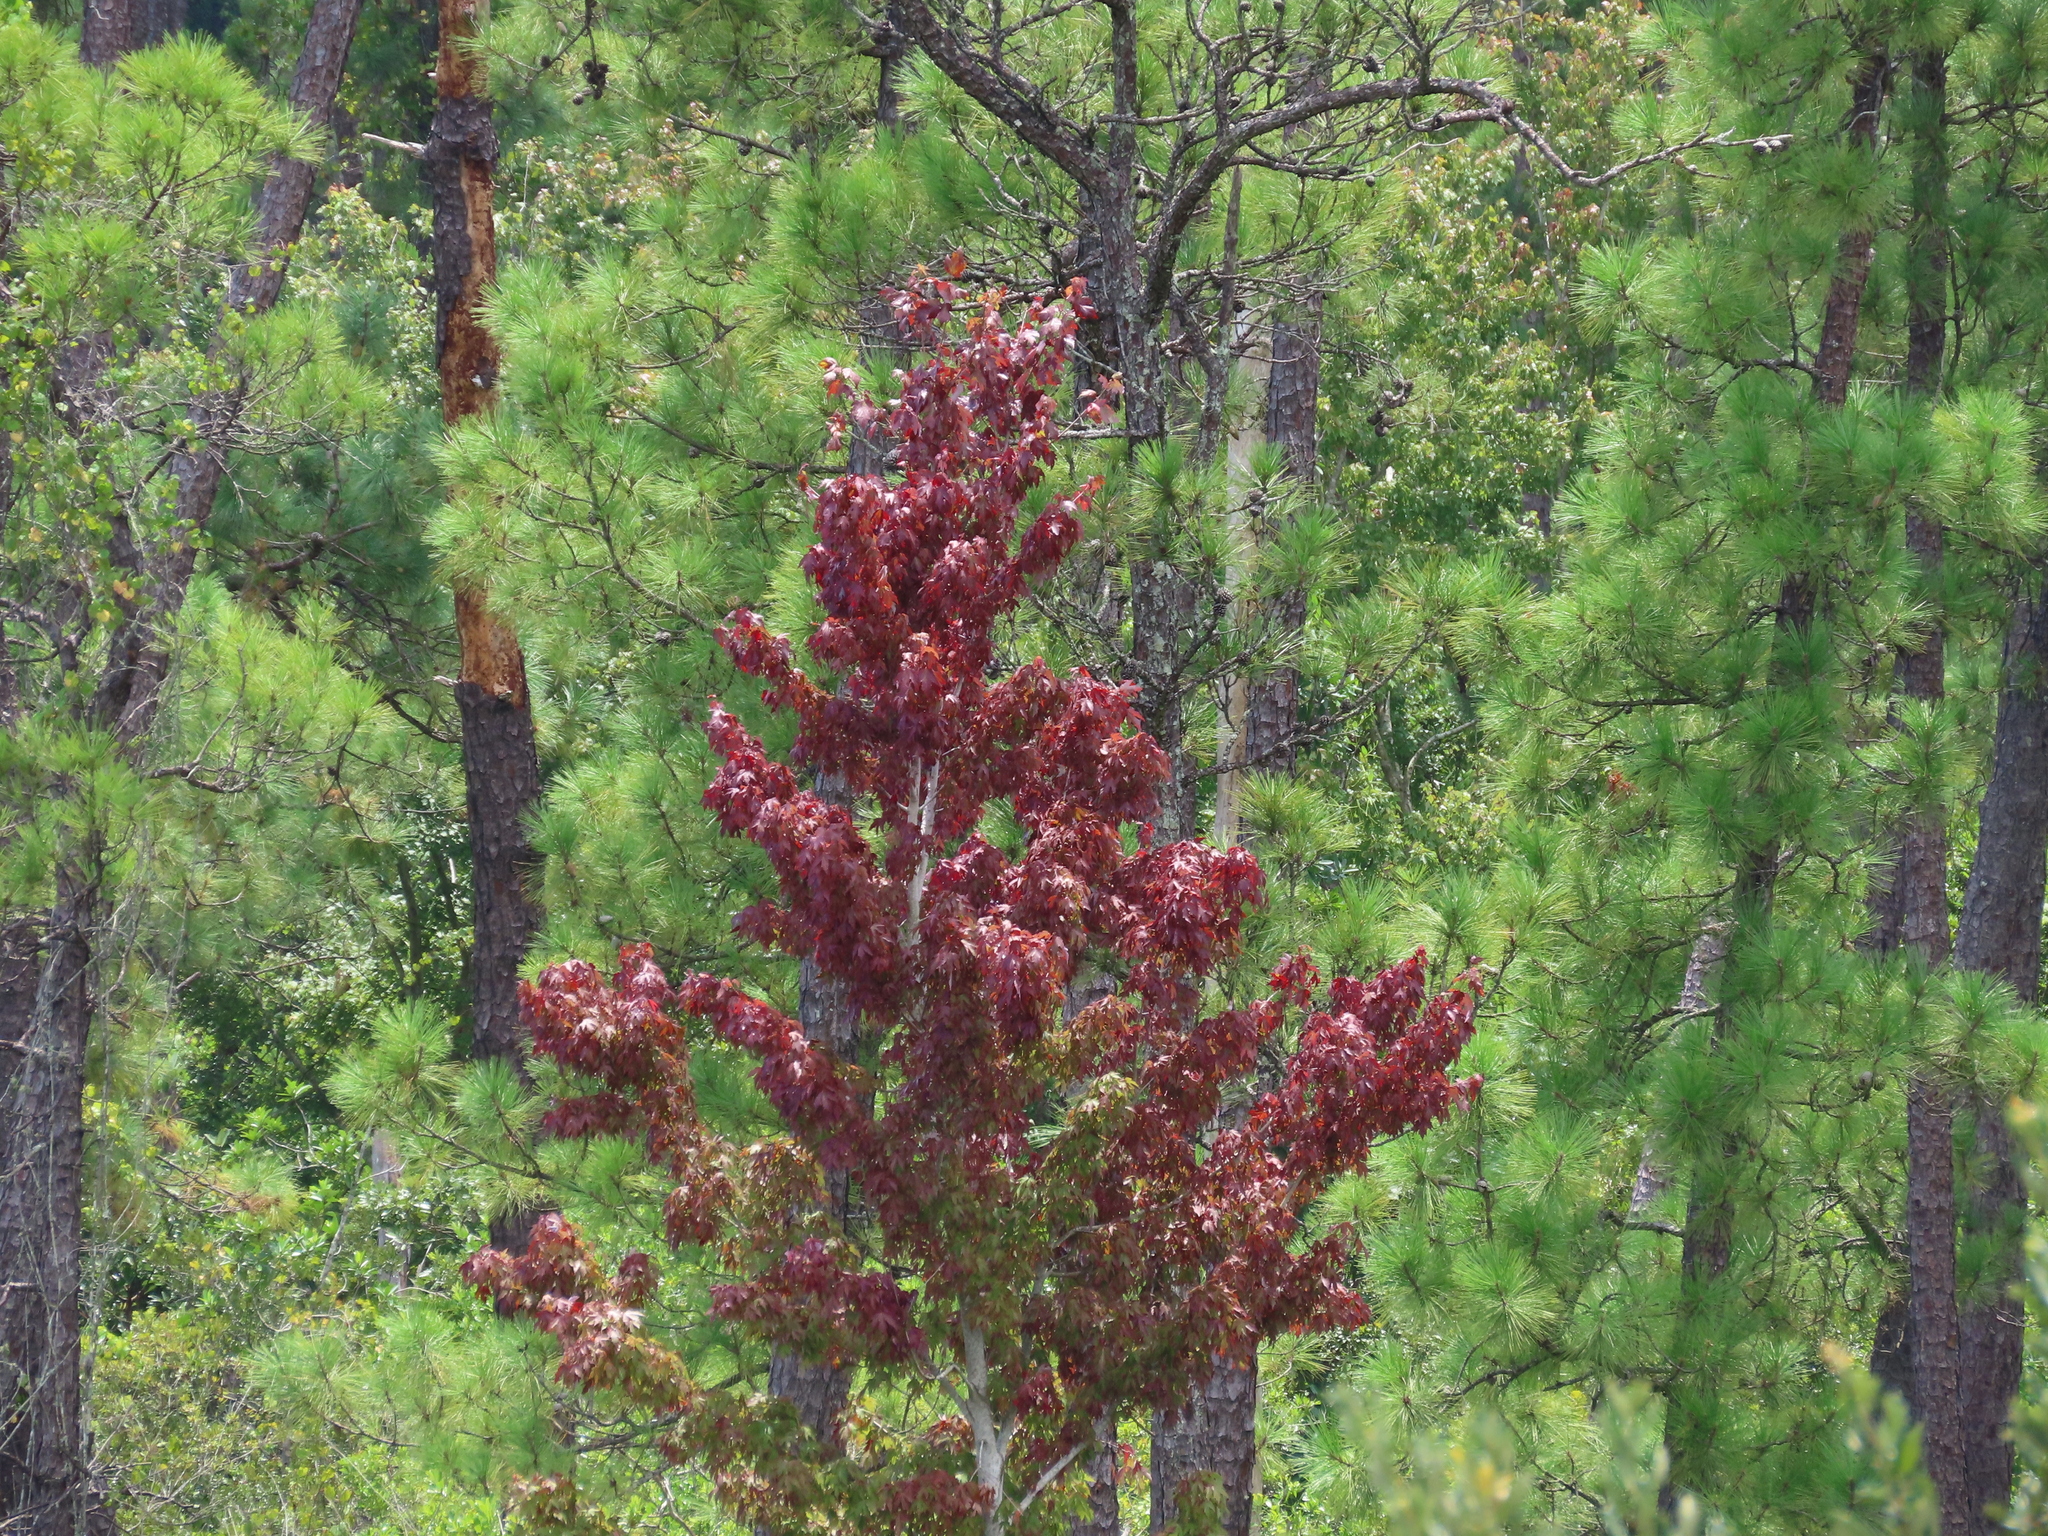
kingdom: Plantae
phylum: Tracheophyta
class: Magnoliopsida
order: Sapindales
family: Sapindaceae
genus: Acer
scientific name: Acer rubrum
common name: Red maple
